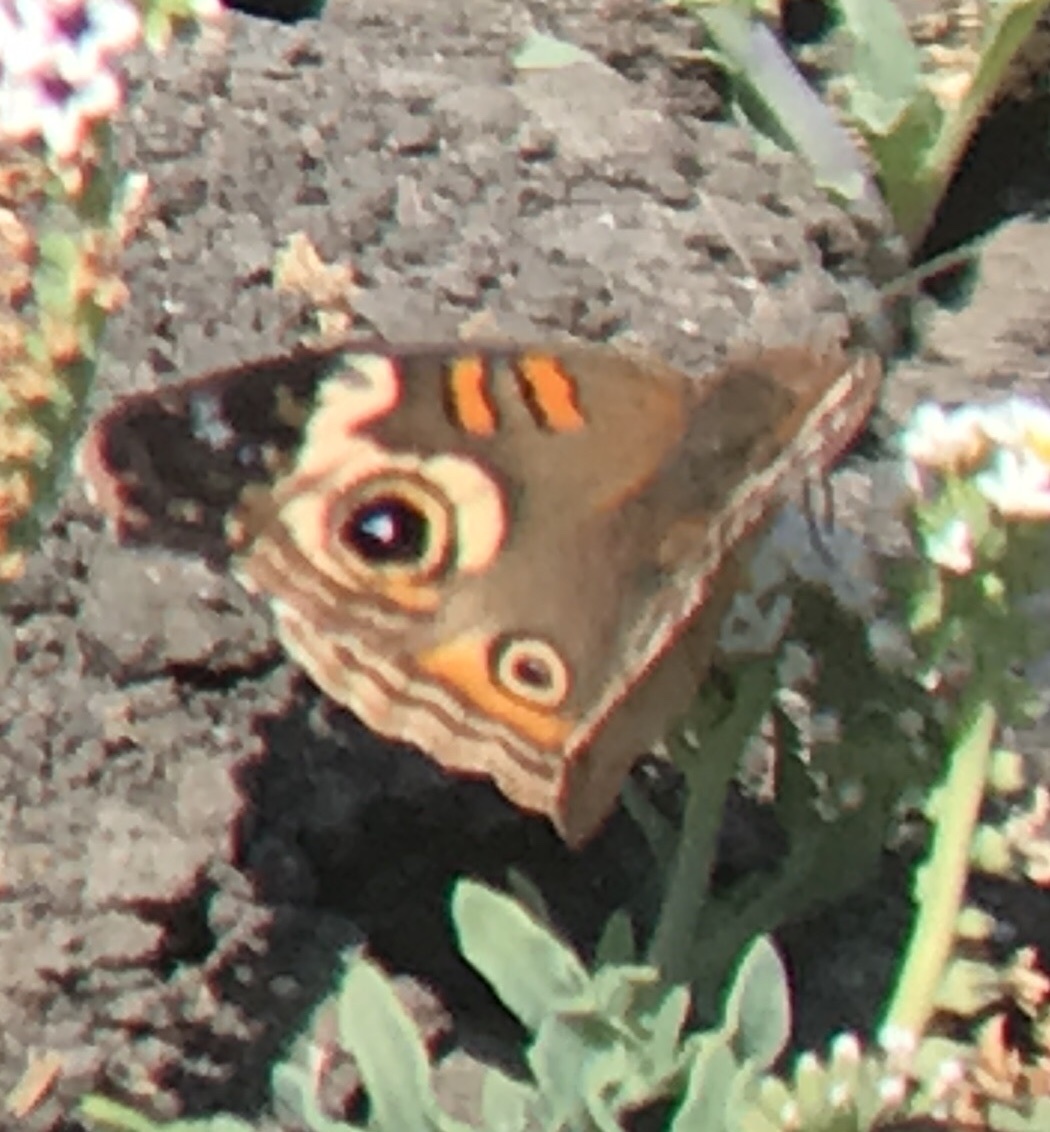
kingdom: Animalia
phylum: Arthropoda
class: Insecta
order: Lepidoptera
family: Nymphalidae
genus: Junonia
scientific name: Junonia grisea
